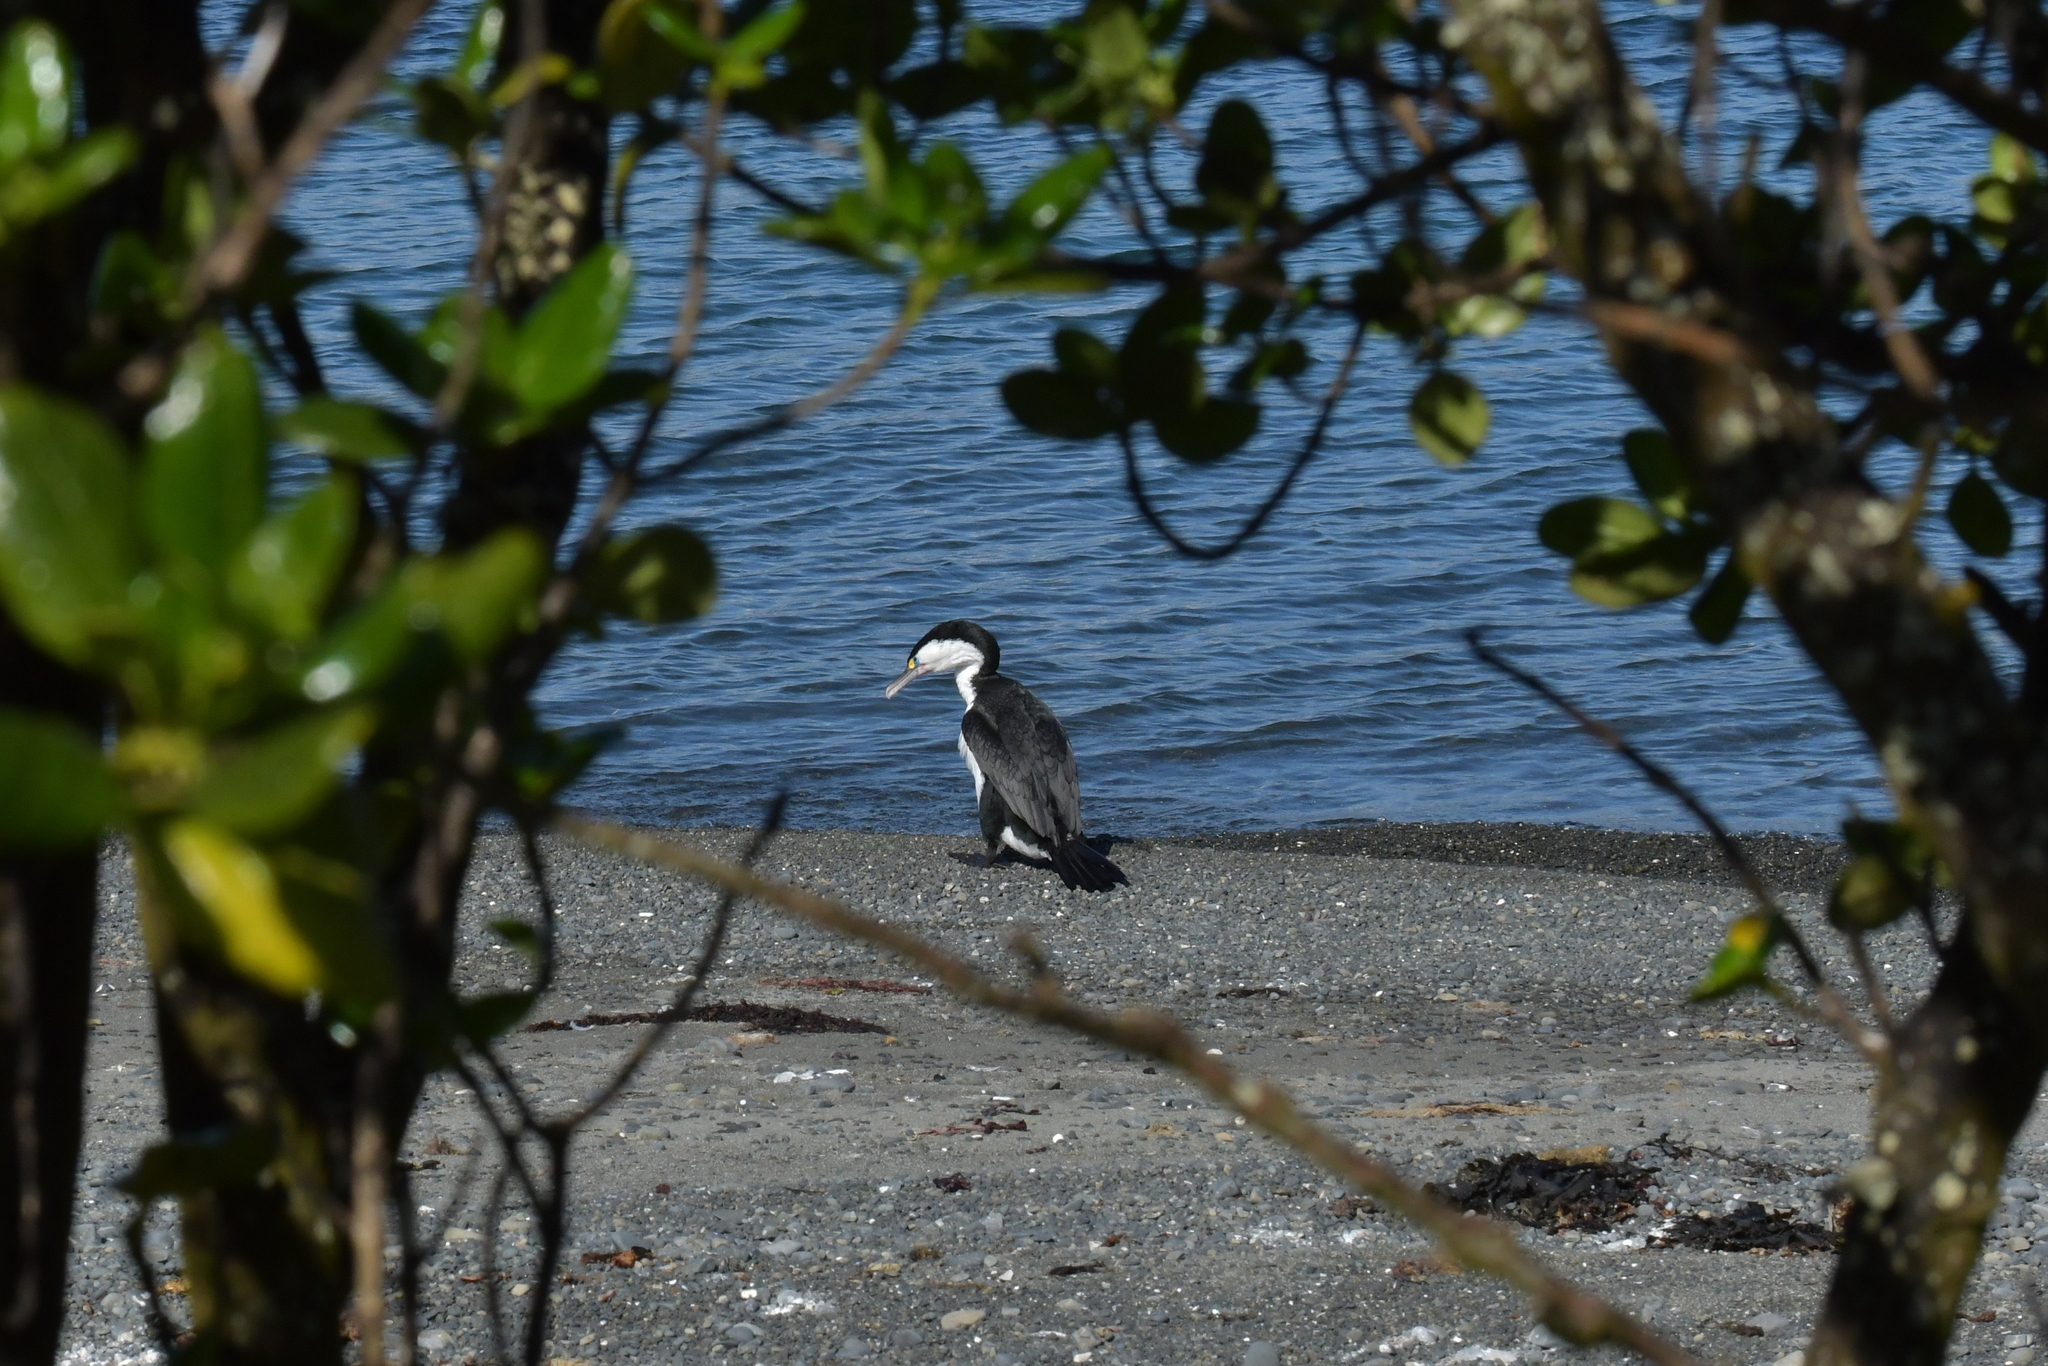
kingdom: Animalia
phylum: Chordata
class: Aves
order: Suliformes
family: Phalacrocoracidae
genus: Phalacrocorax
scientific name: Phalacrocorax varius
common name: Pied cormorant
